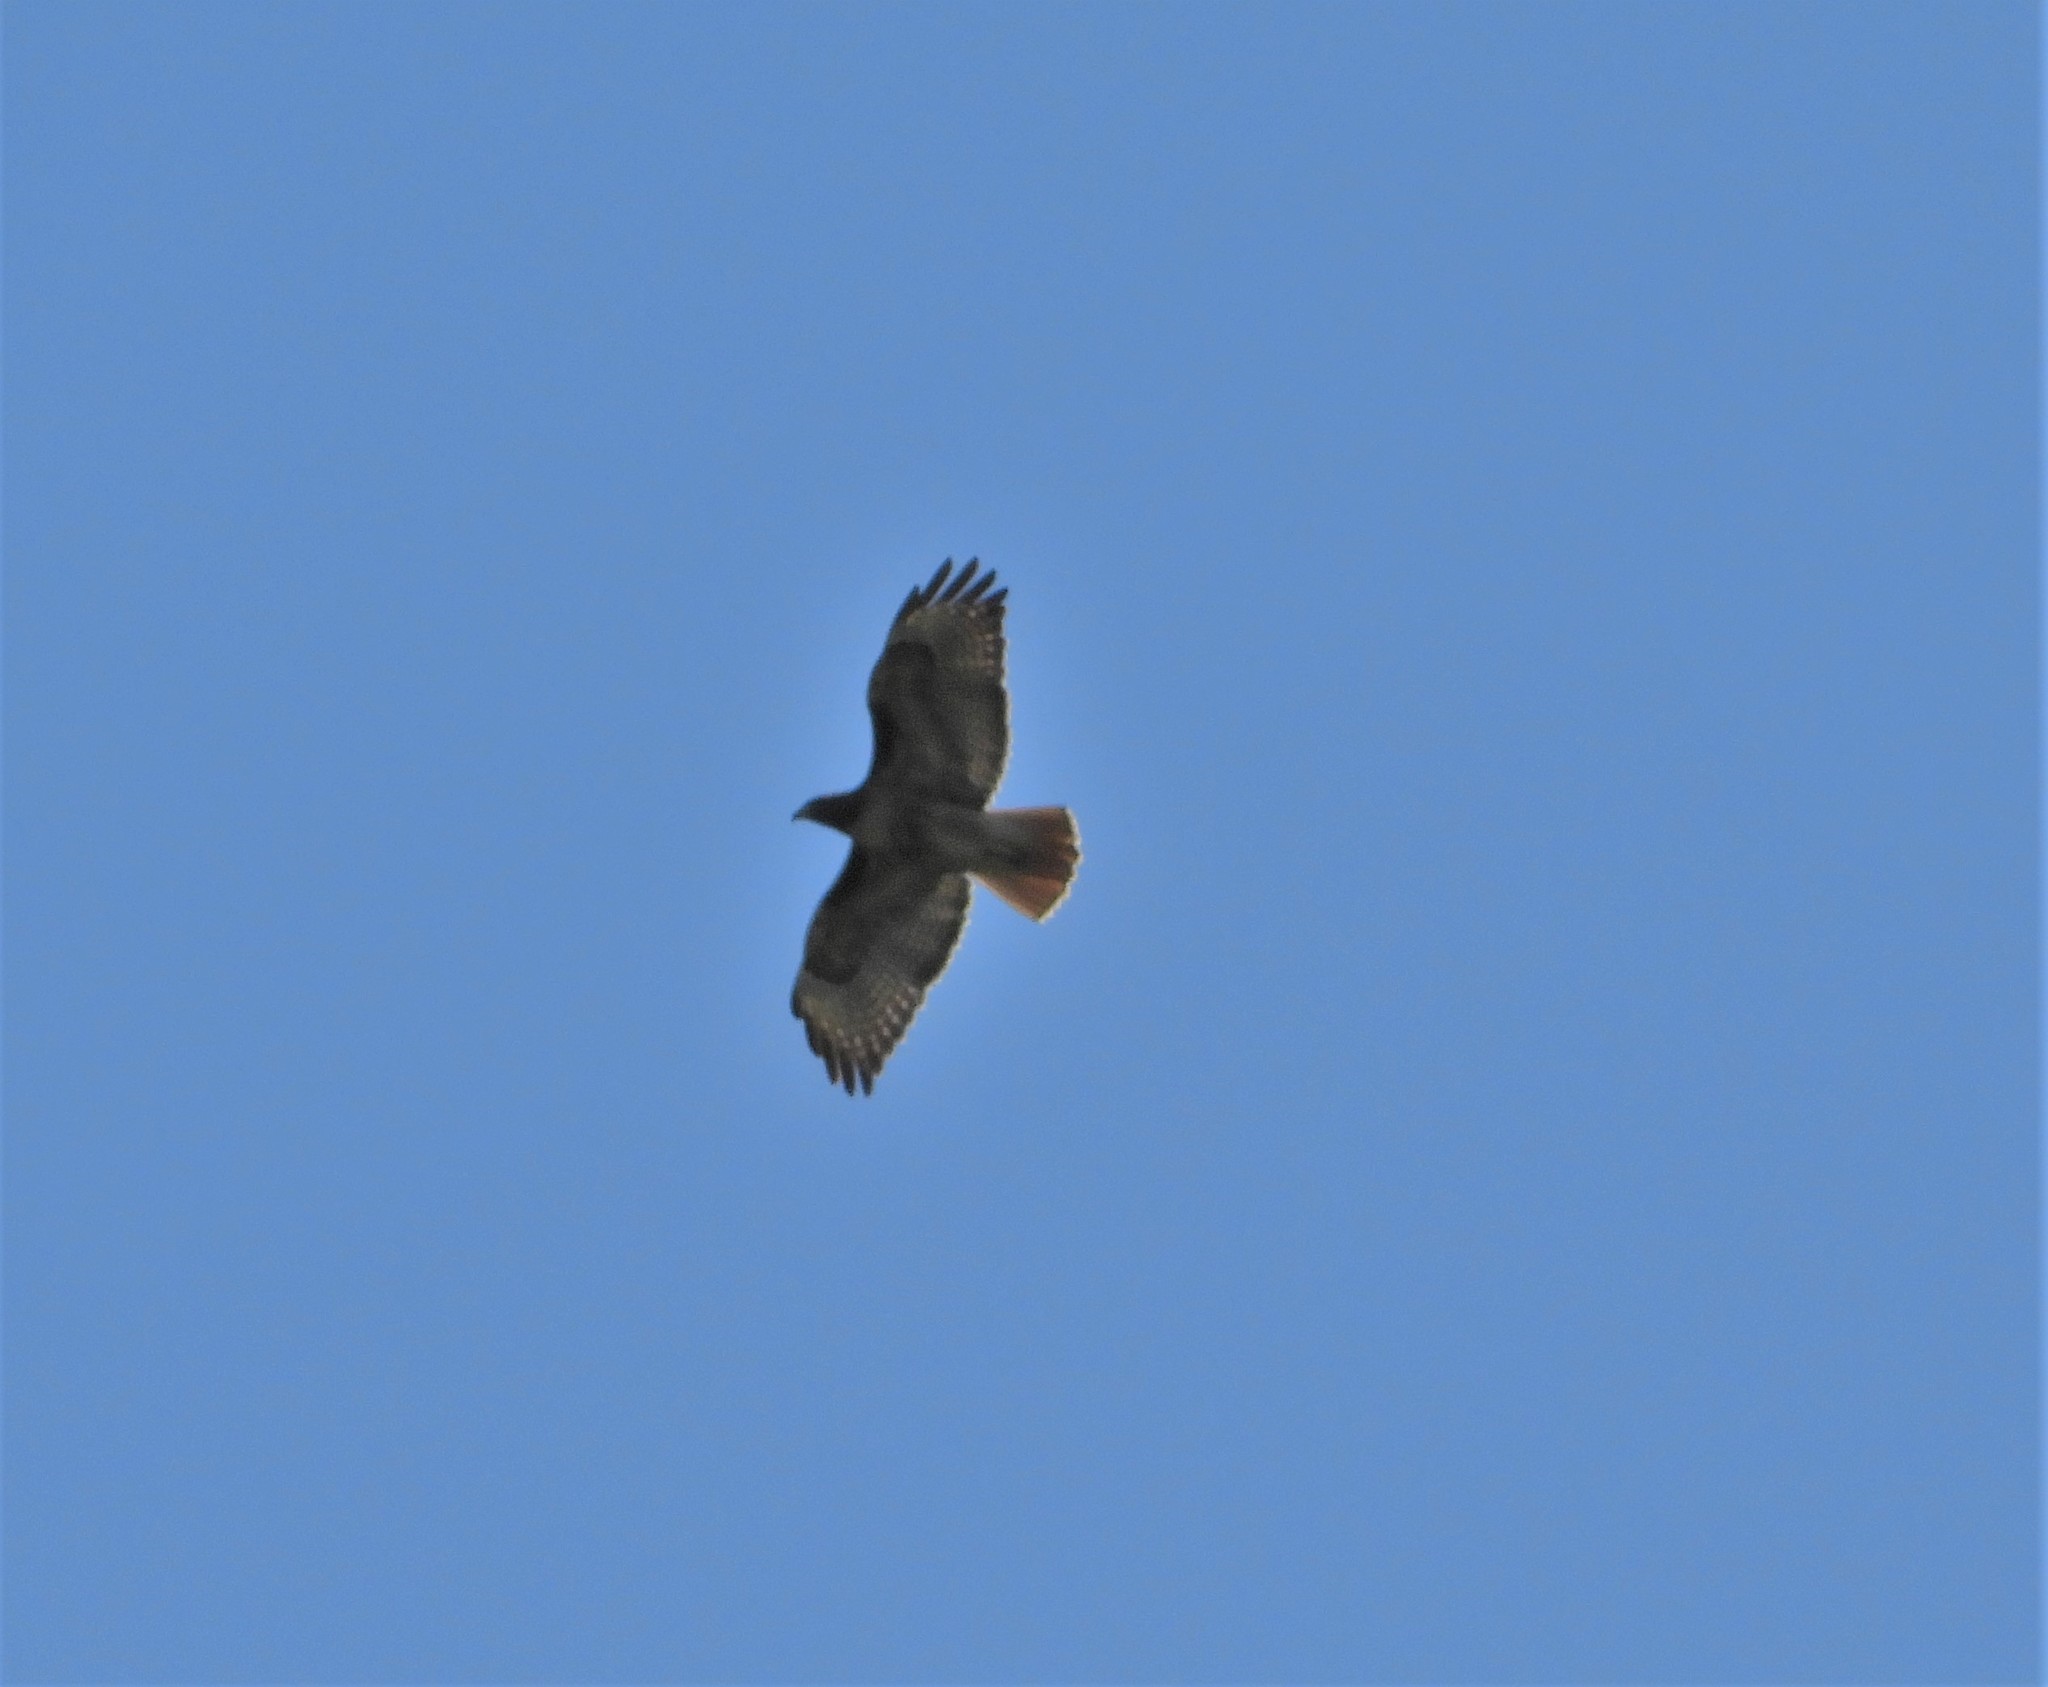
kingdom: Animalia
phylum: Chordata
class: Aves
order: Accipitriformes
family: Accipitridae
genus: Buteo
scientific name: Buteo jamaicensis
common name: Red-tailed hawk
